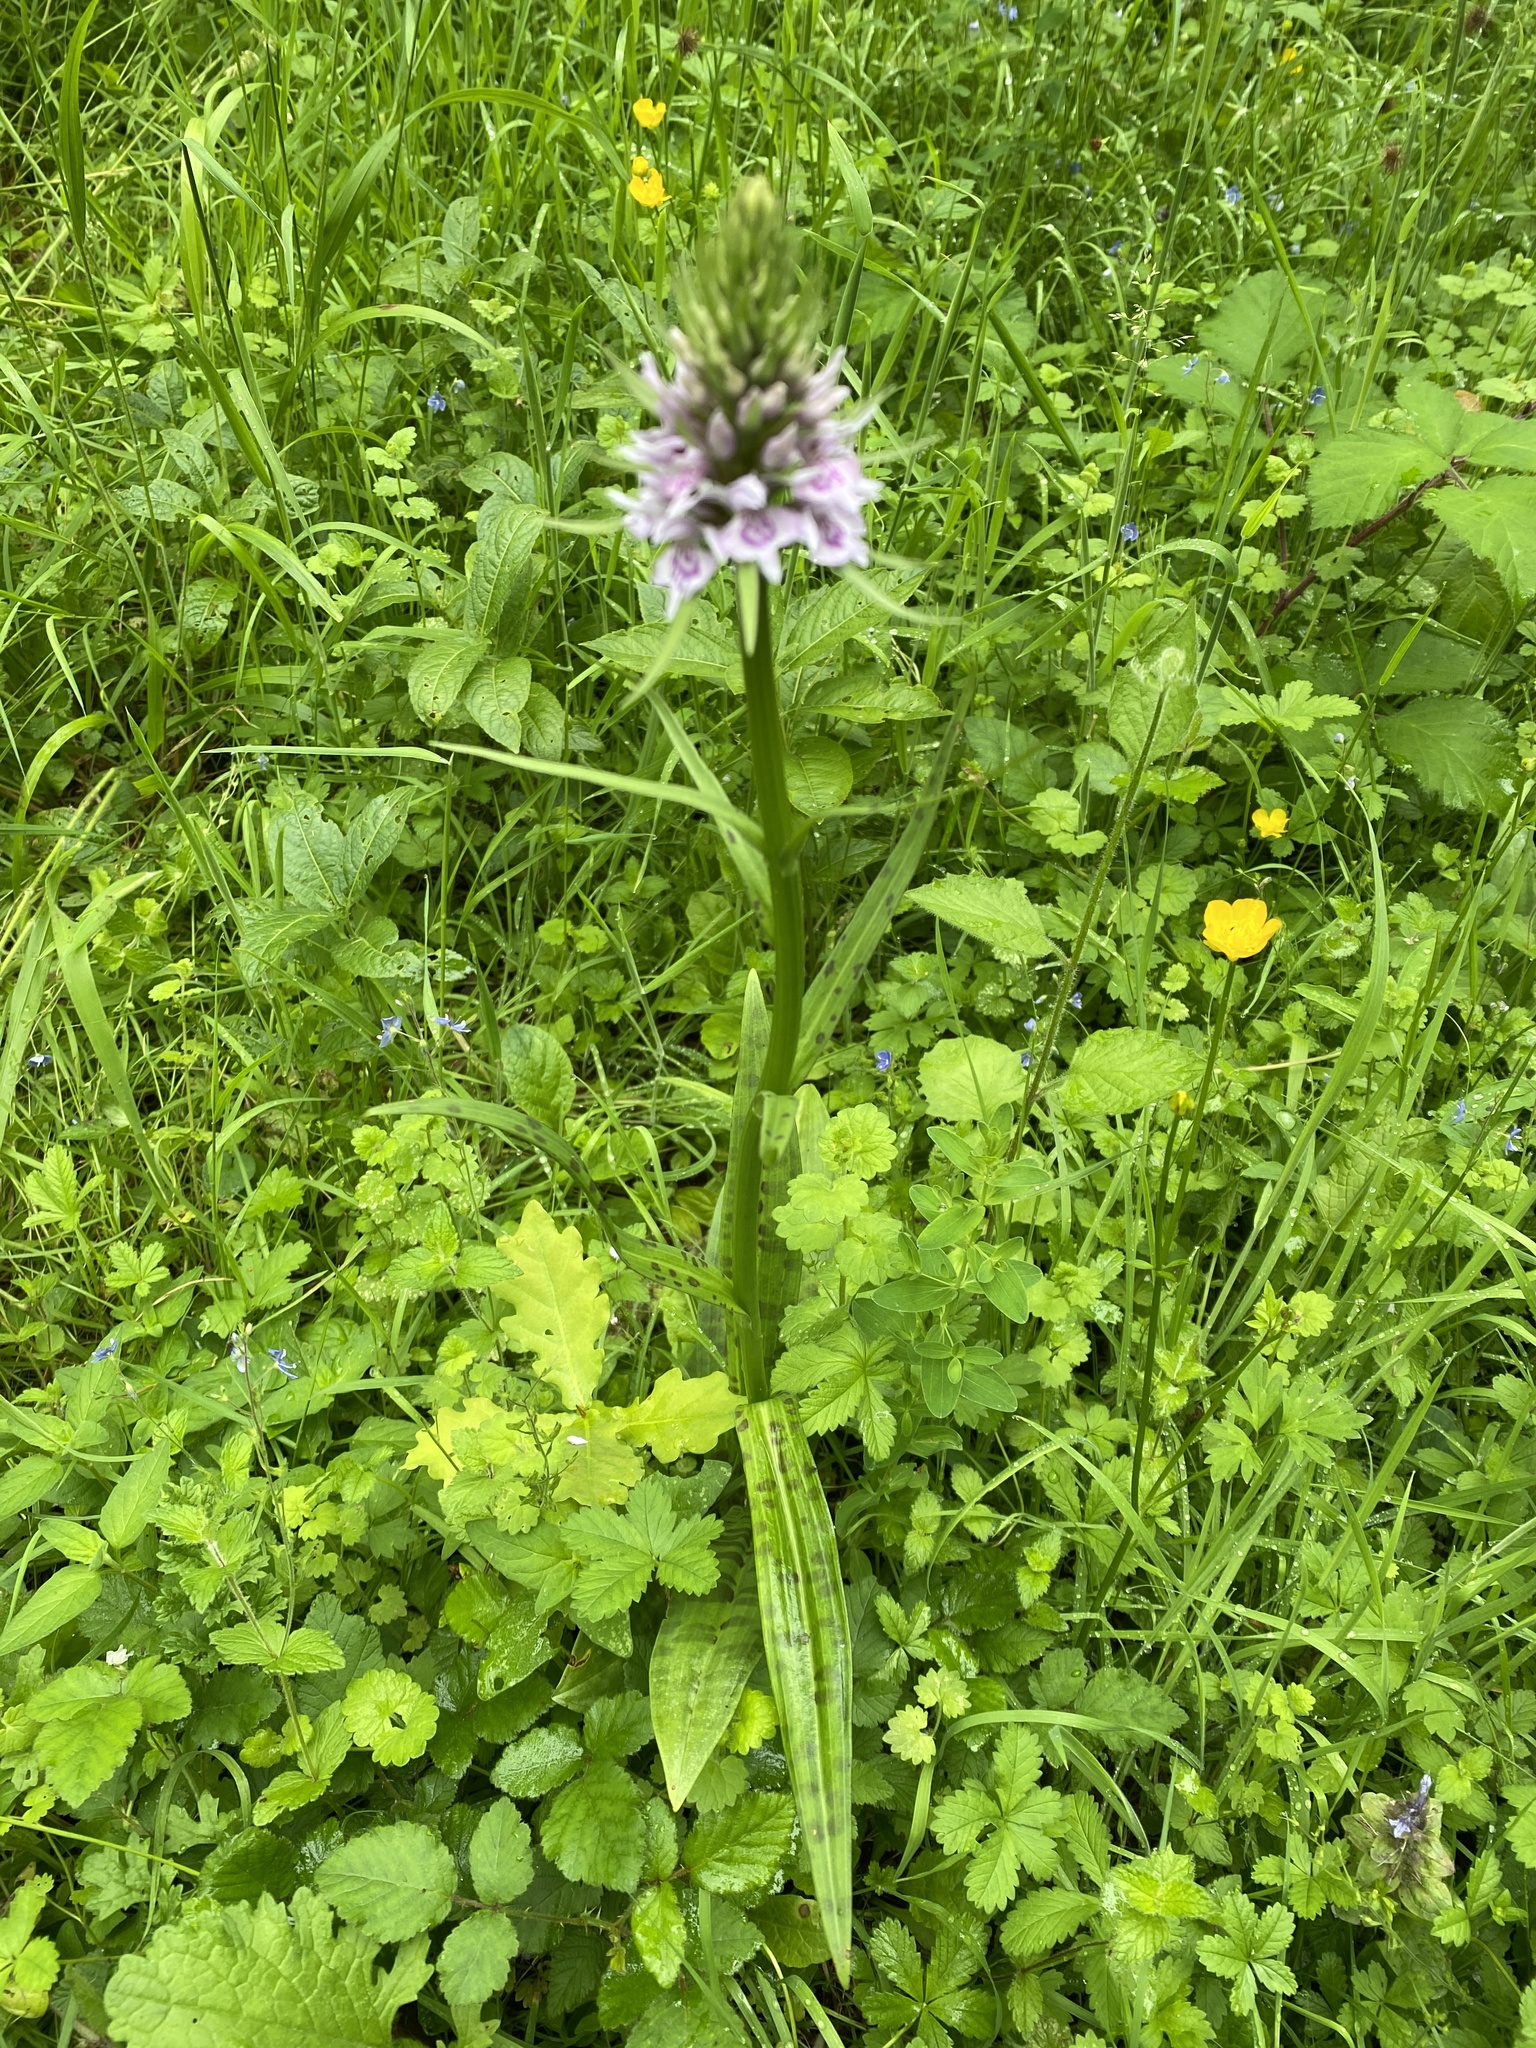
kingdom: Plantae
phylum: Tracheophyta
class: Liliopsida
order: Asparagales
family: Orchidaceae
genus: Dactylorhiza
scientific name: Dactylorhiza maculata
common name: Heath spotted-orchid
